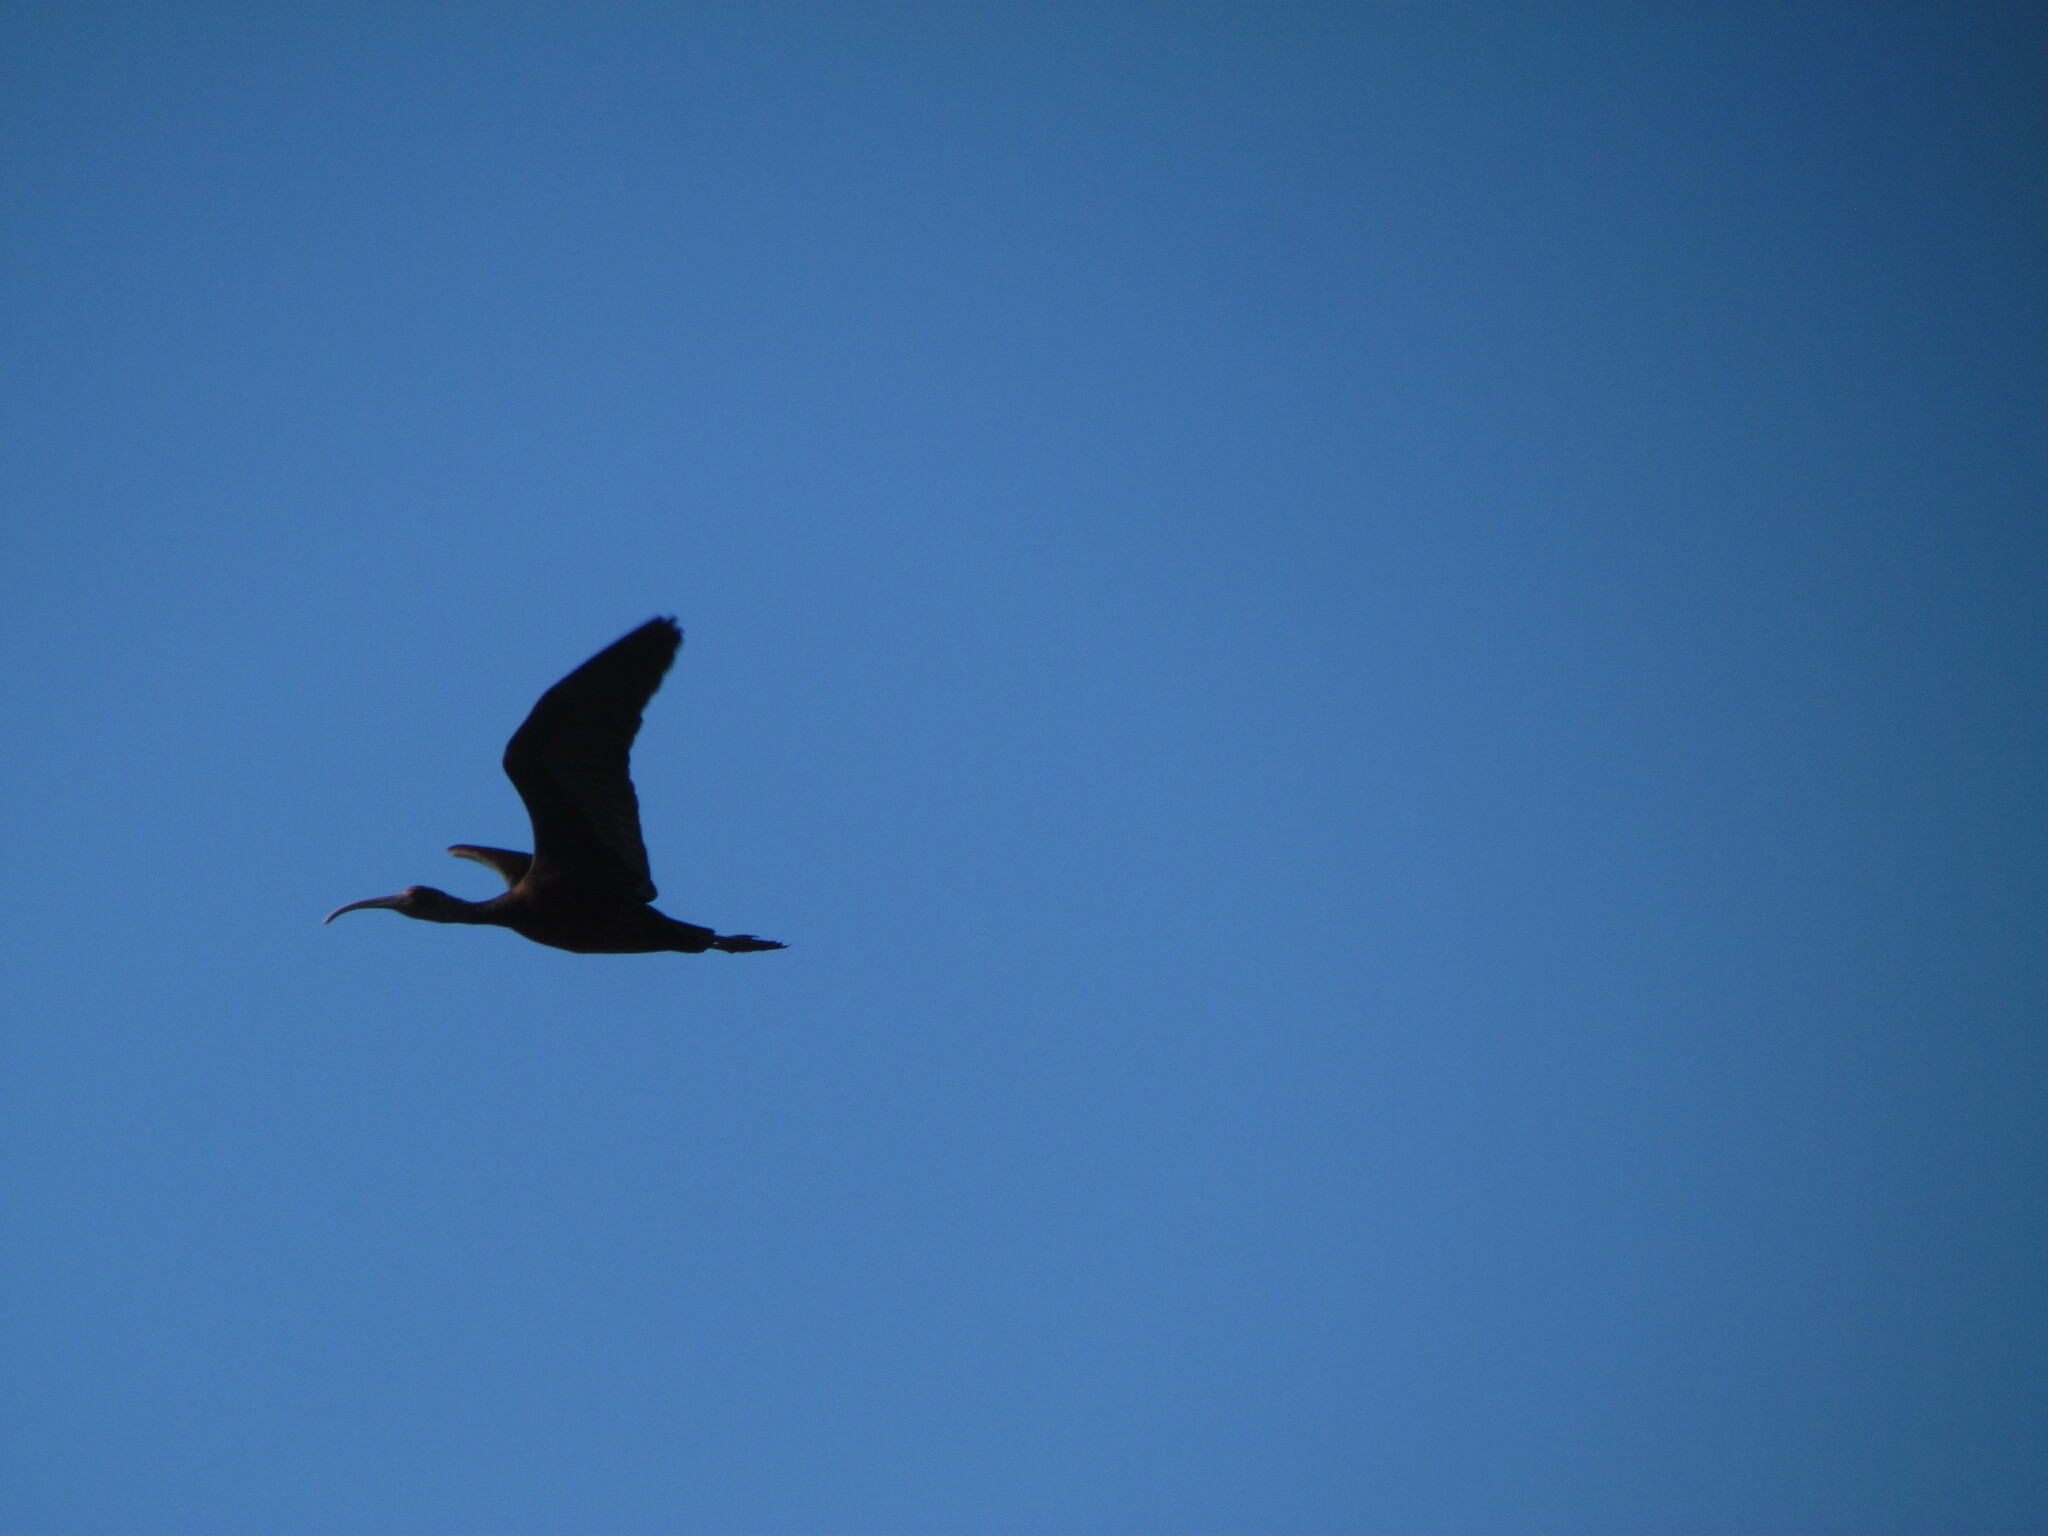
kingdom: Animalia
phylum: Chordata
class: Aves
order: Pelecaniformes
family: Threskiornithidae
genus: Plegadis
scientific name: Plegadis chihi
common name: White-faced ibis
